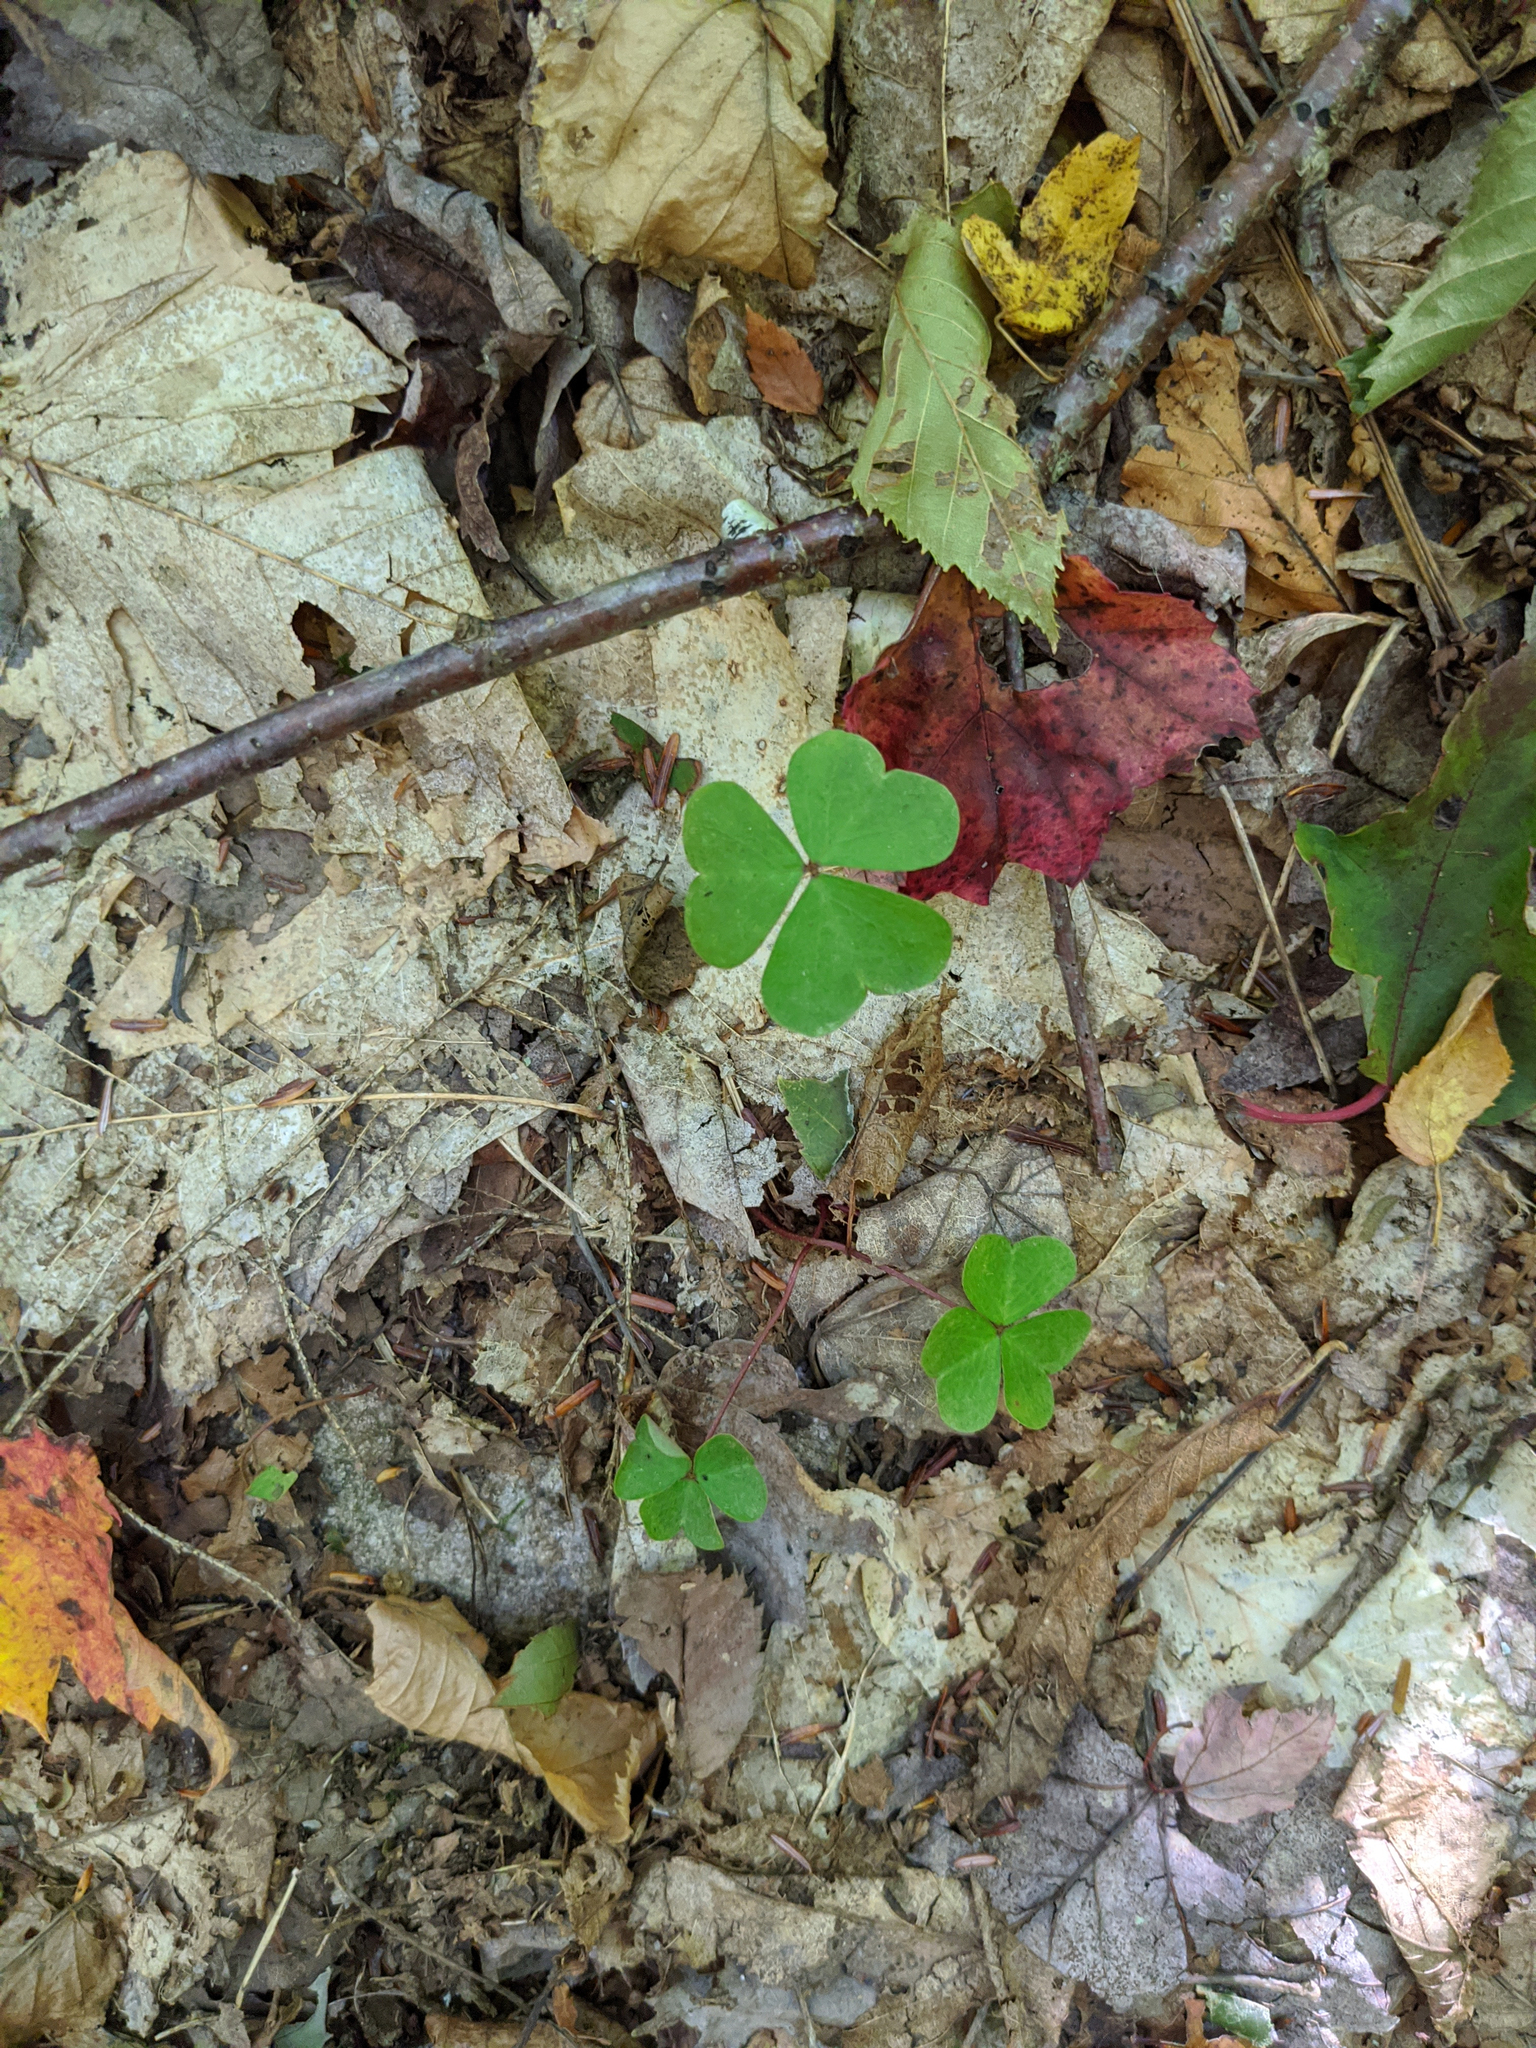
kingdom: Plantae
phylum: Tracheophyta
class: Magnoliopsida
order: Oxalidales
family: Oxalidaceae
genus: Oxalis
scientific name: Oxalis montana
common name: American wood-sorrel
